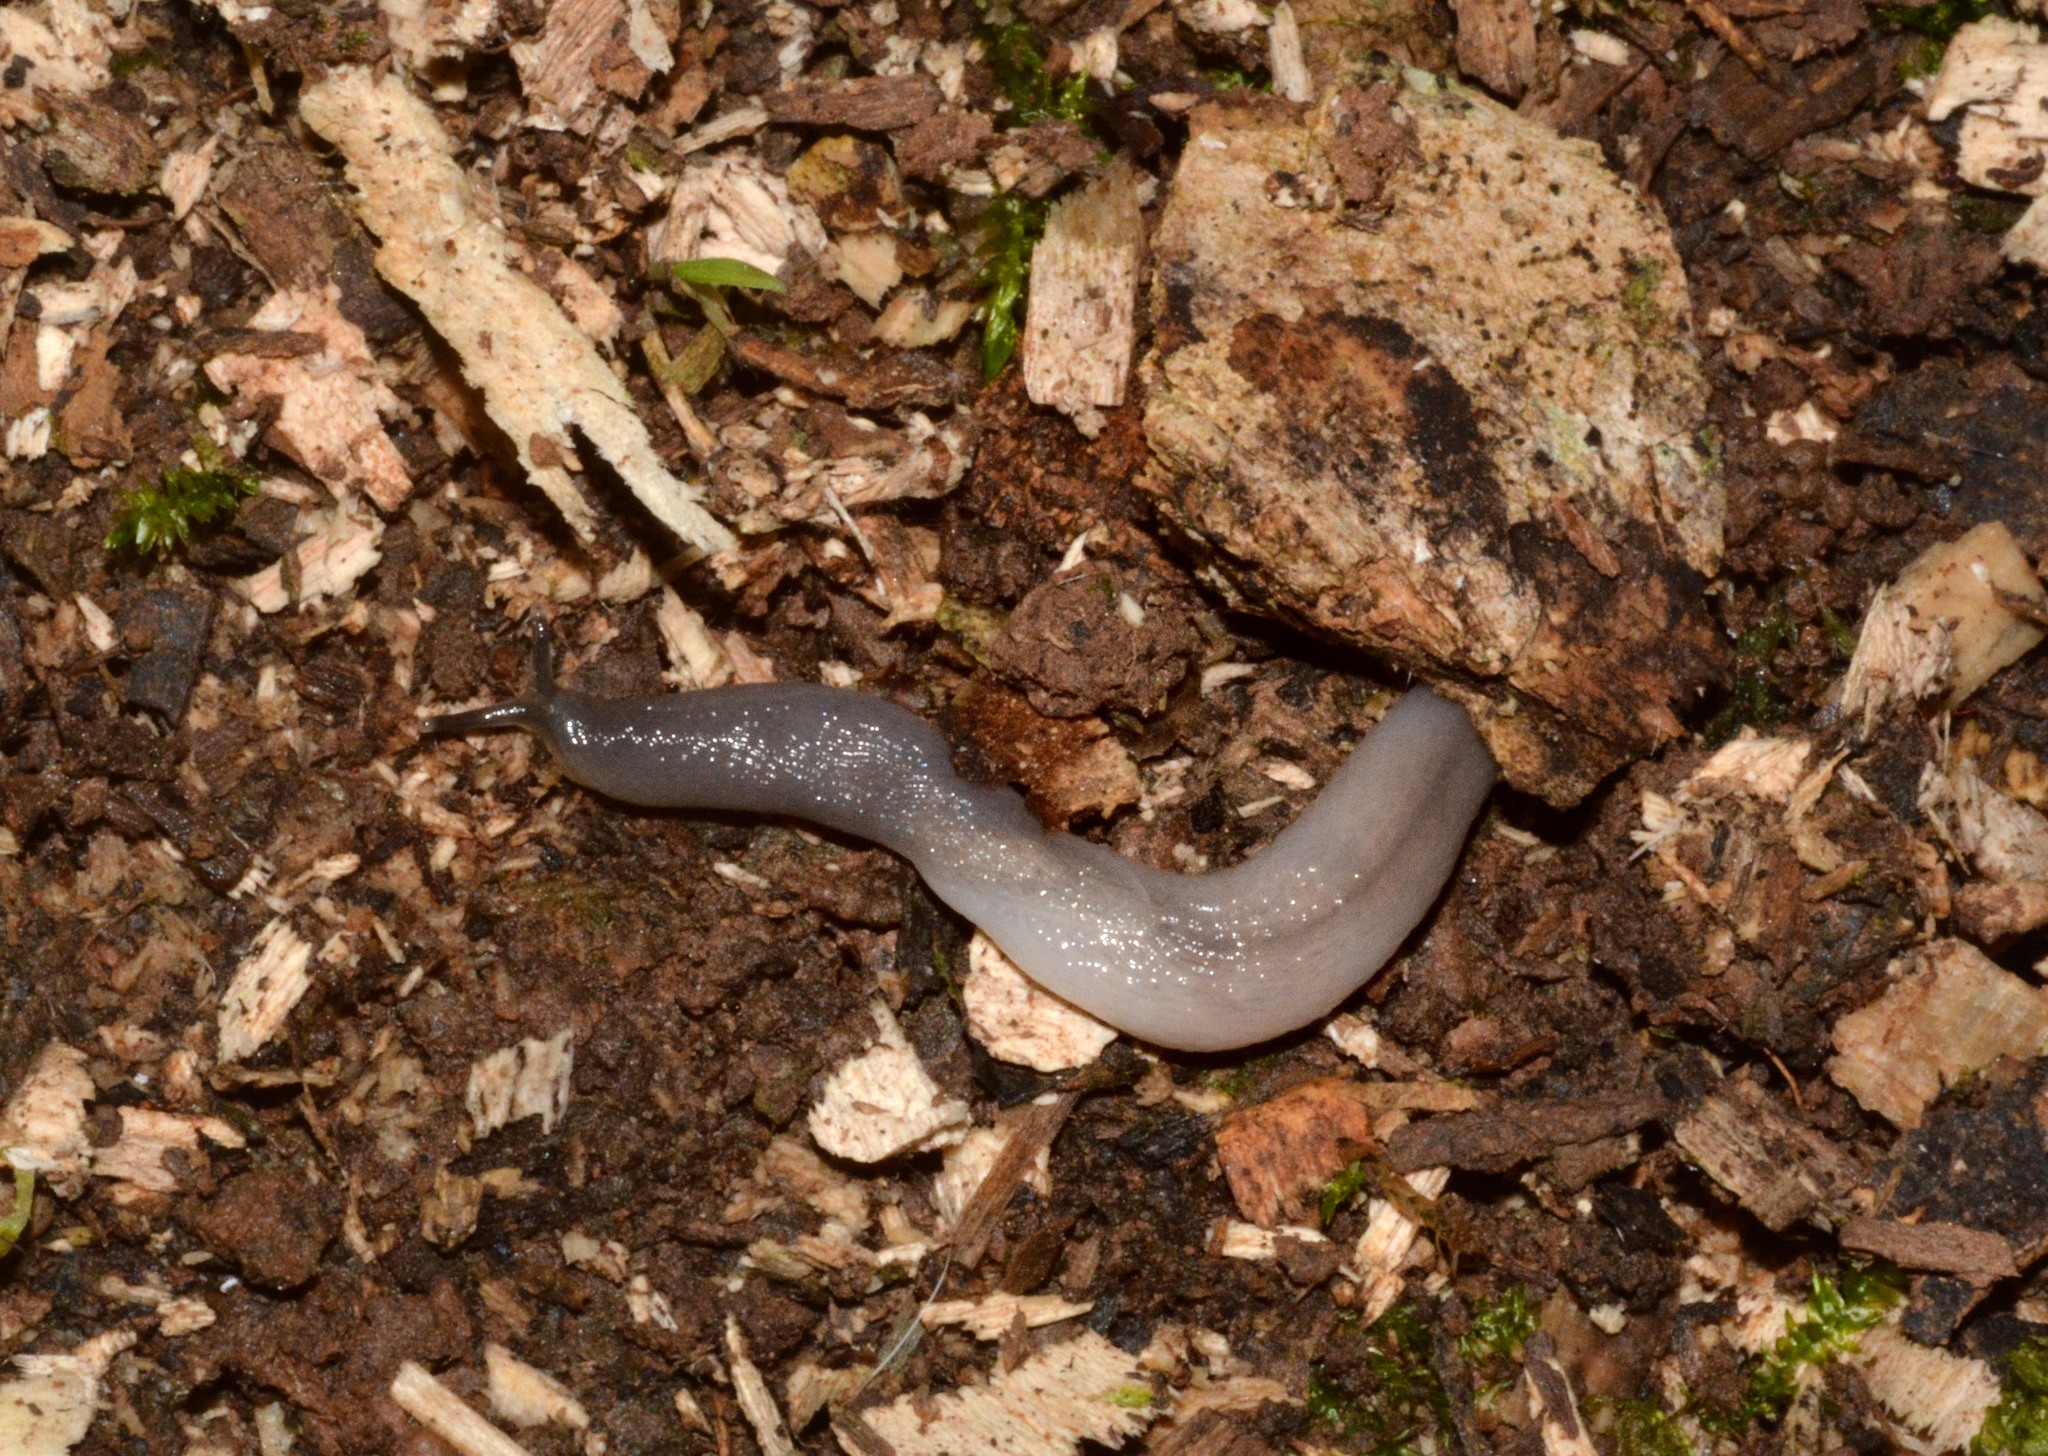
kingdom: Animalia
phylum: Mollusca
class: Gastropoda
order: Stylommatophora
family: Boettgerillidae
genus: Boettgerilla
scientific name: Boettgerilla pallens
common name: Worm slug
